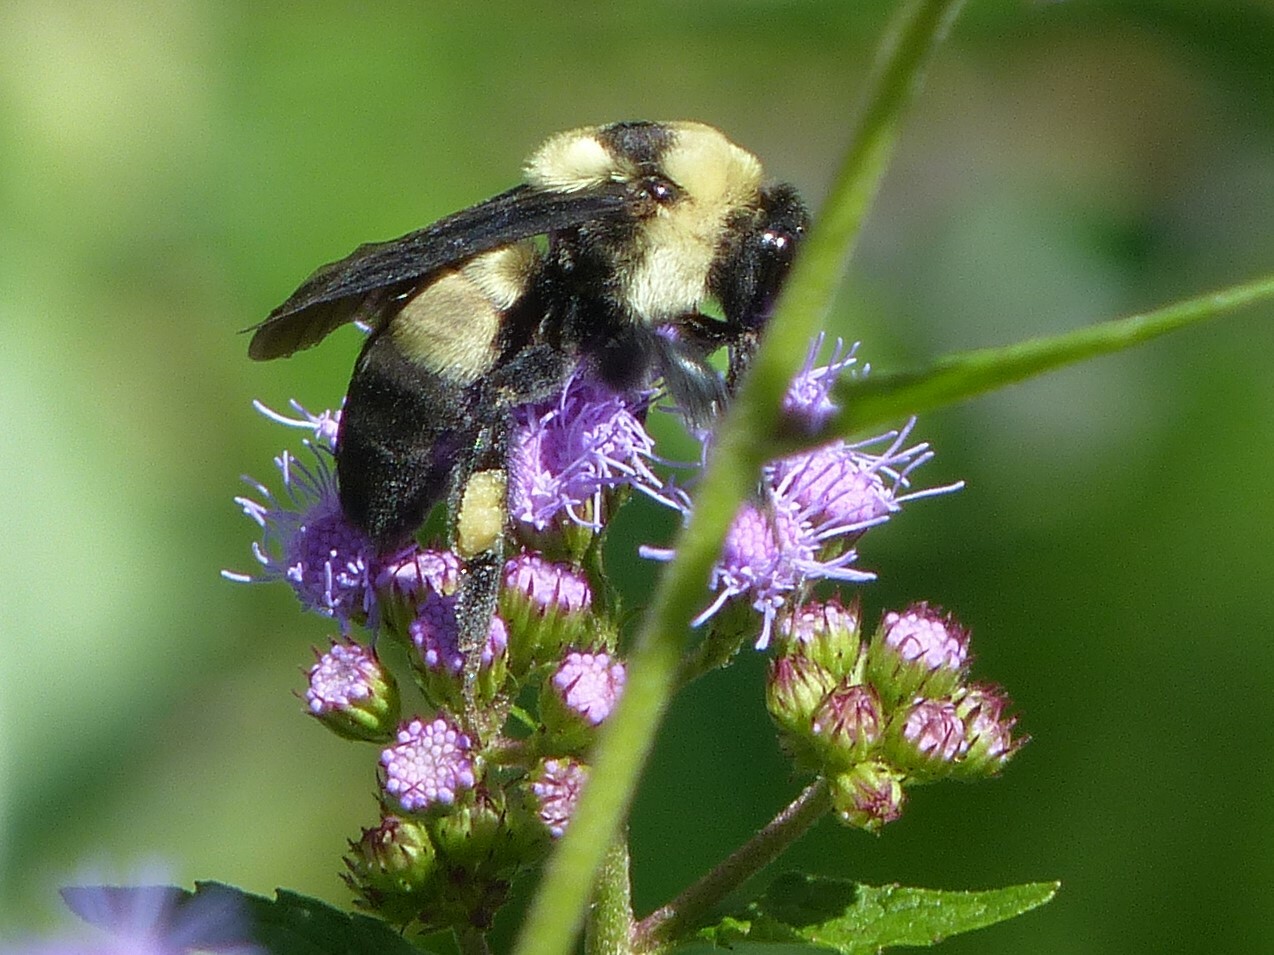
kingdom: Animalia
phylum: Arthropoda
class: Insecta
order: Hymenoptera
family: Apidae
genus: Bombus
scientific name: Bombus fraternus
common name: Southern plains bumble bee
